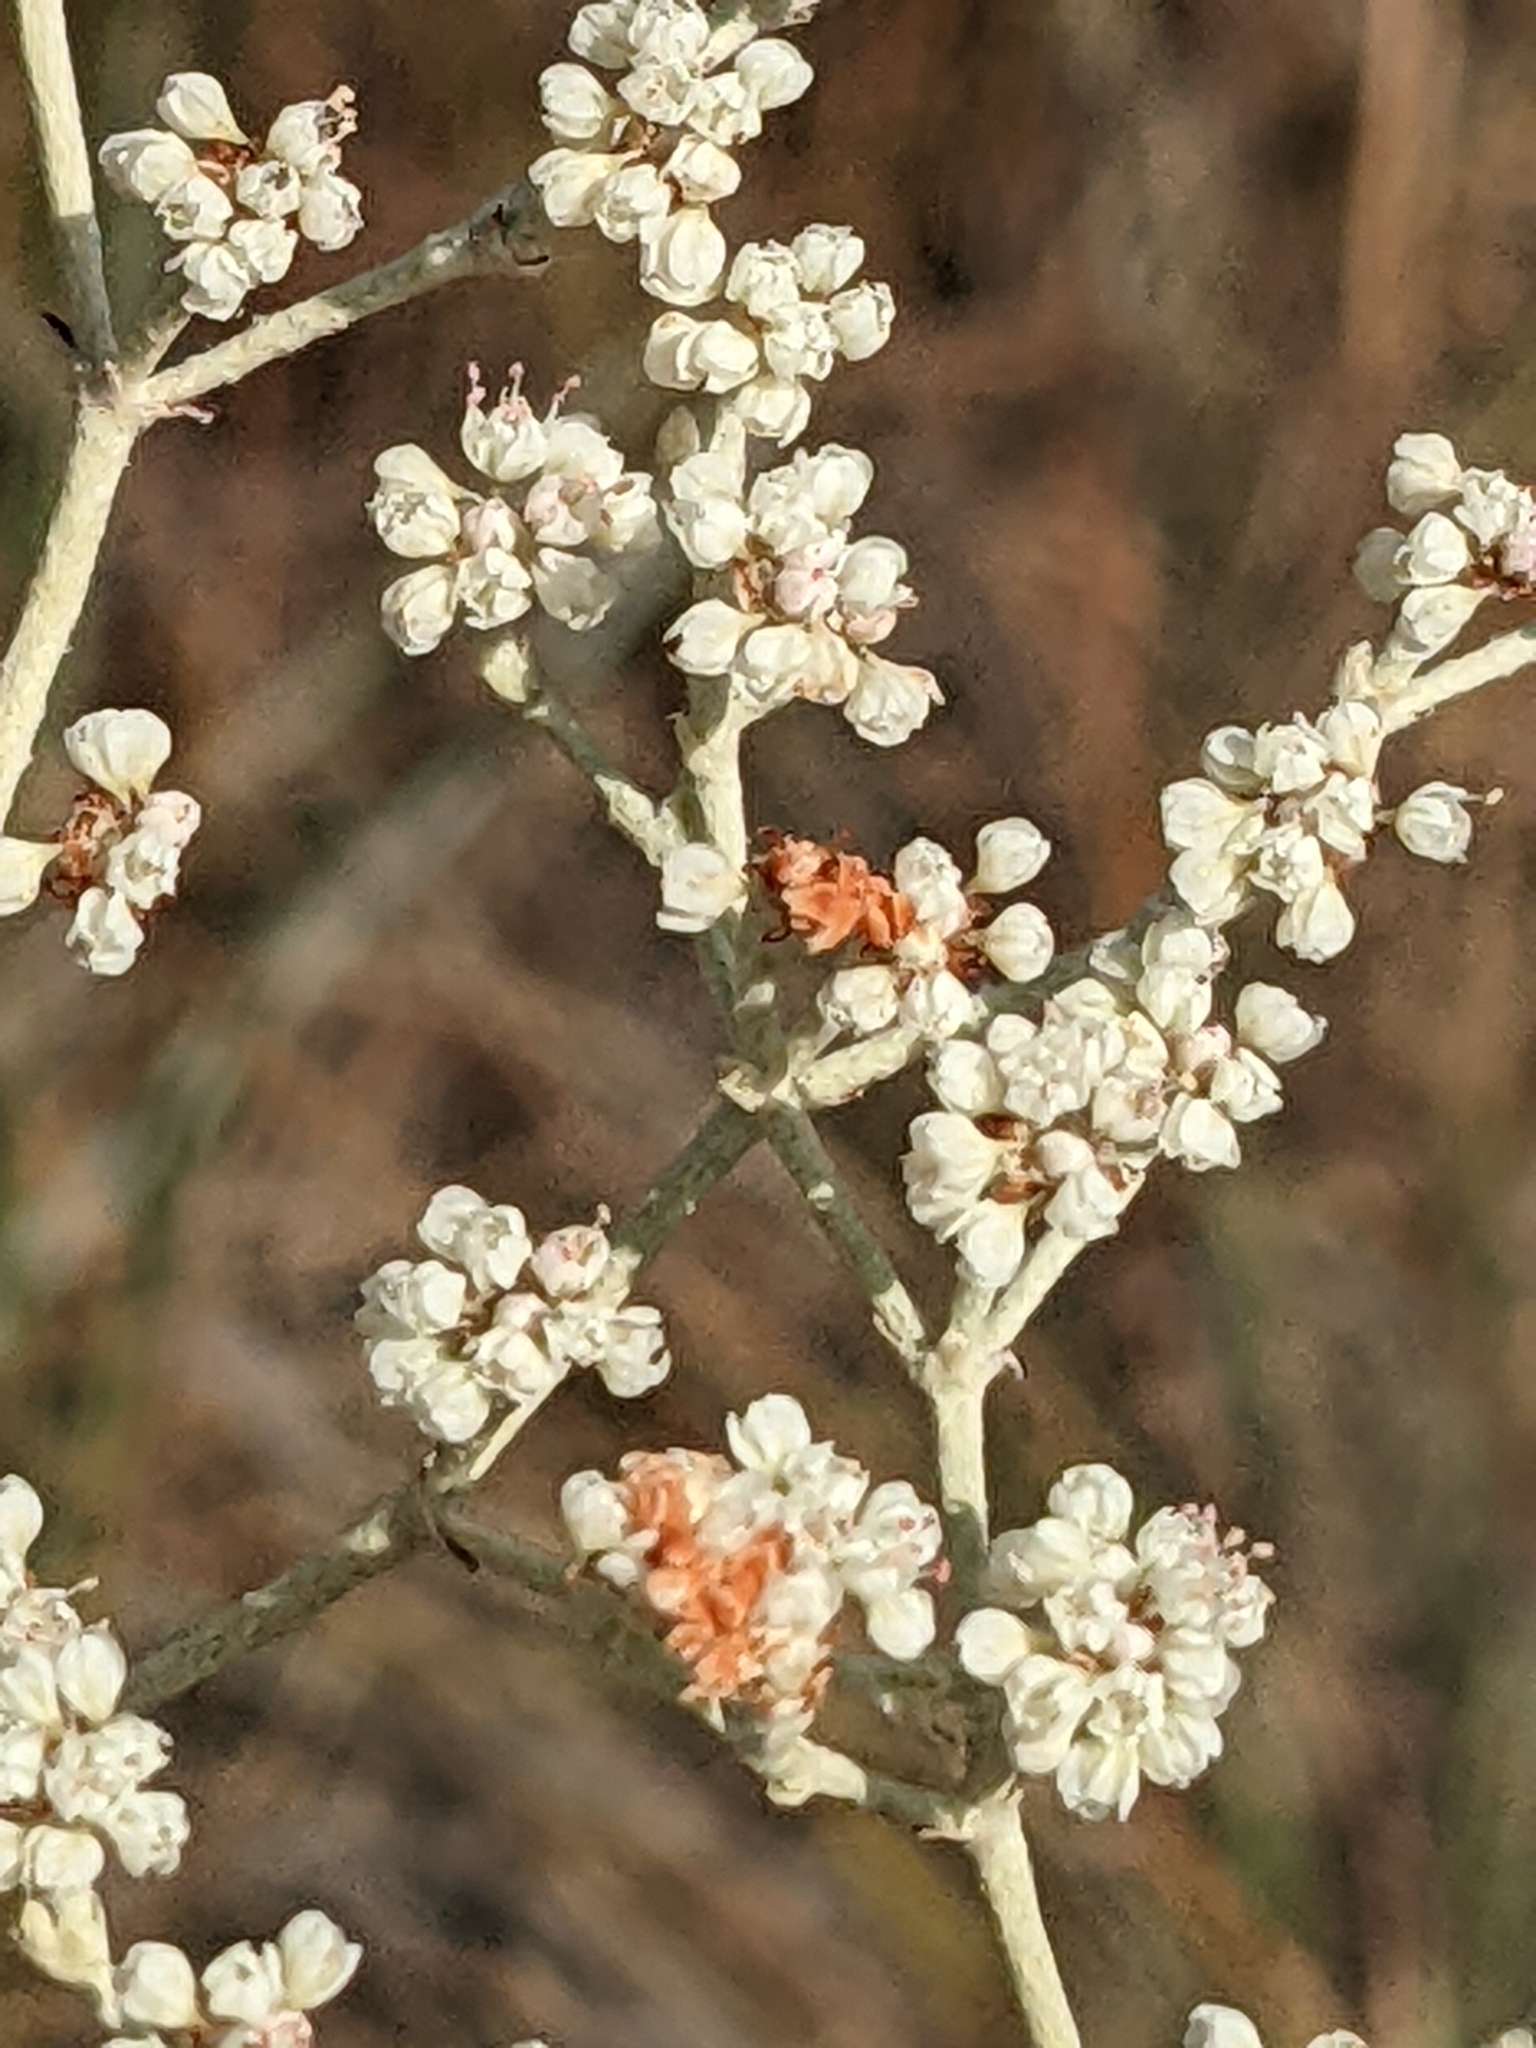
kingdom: Plantae
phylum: Tracheophyta
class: Magnoliopsida
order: Caryophyllales
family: Polygonaceae
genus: Eriogonum
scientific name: Eriogonum annuum
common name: Annual wild buckwheat
